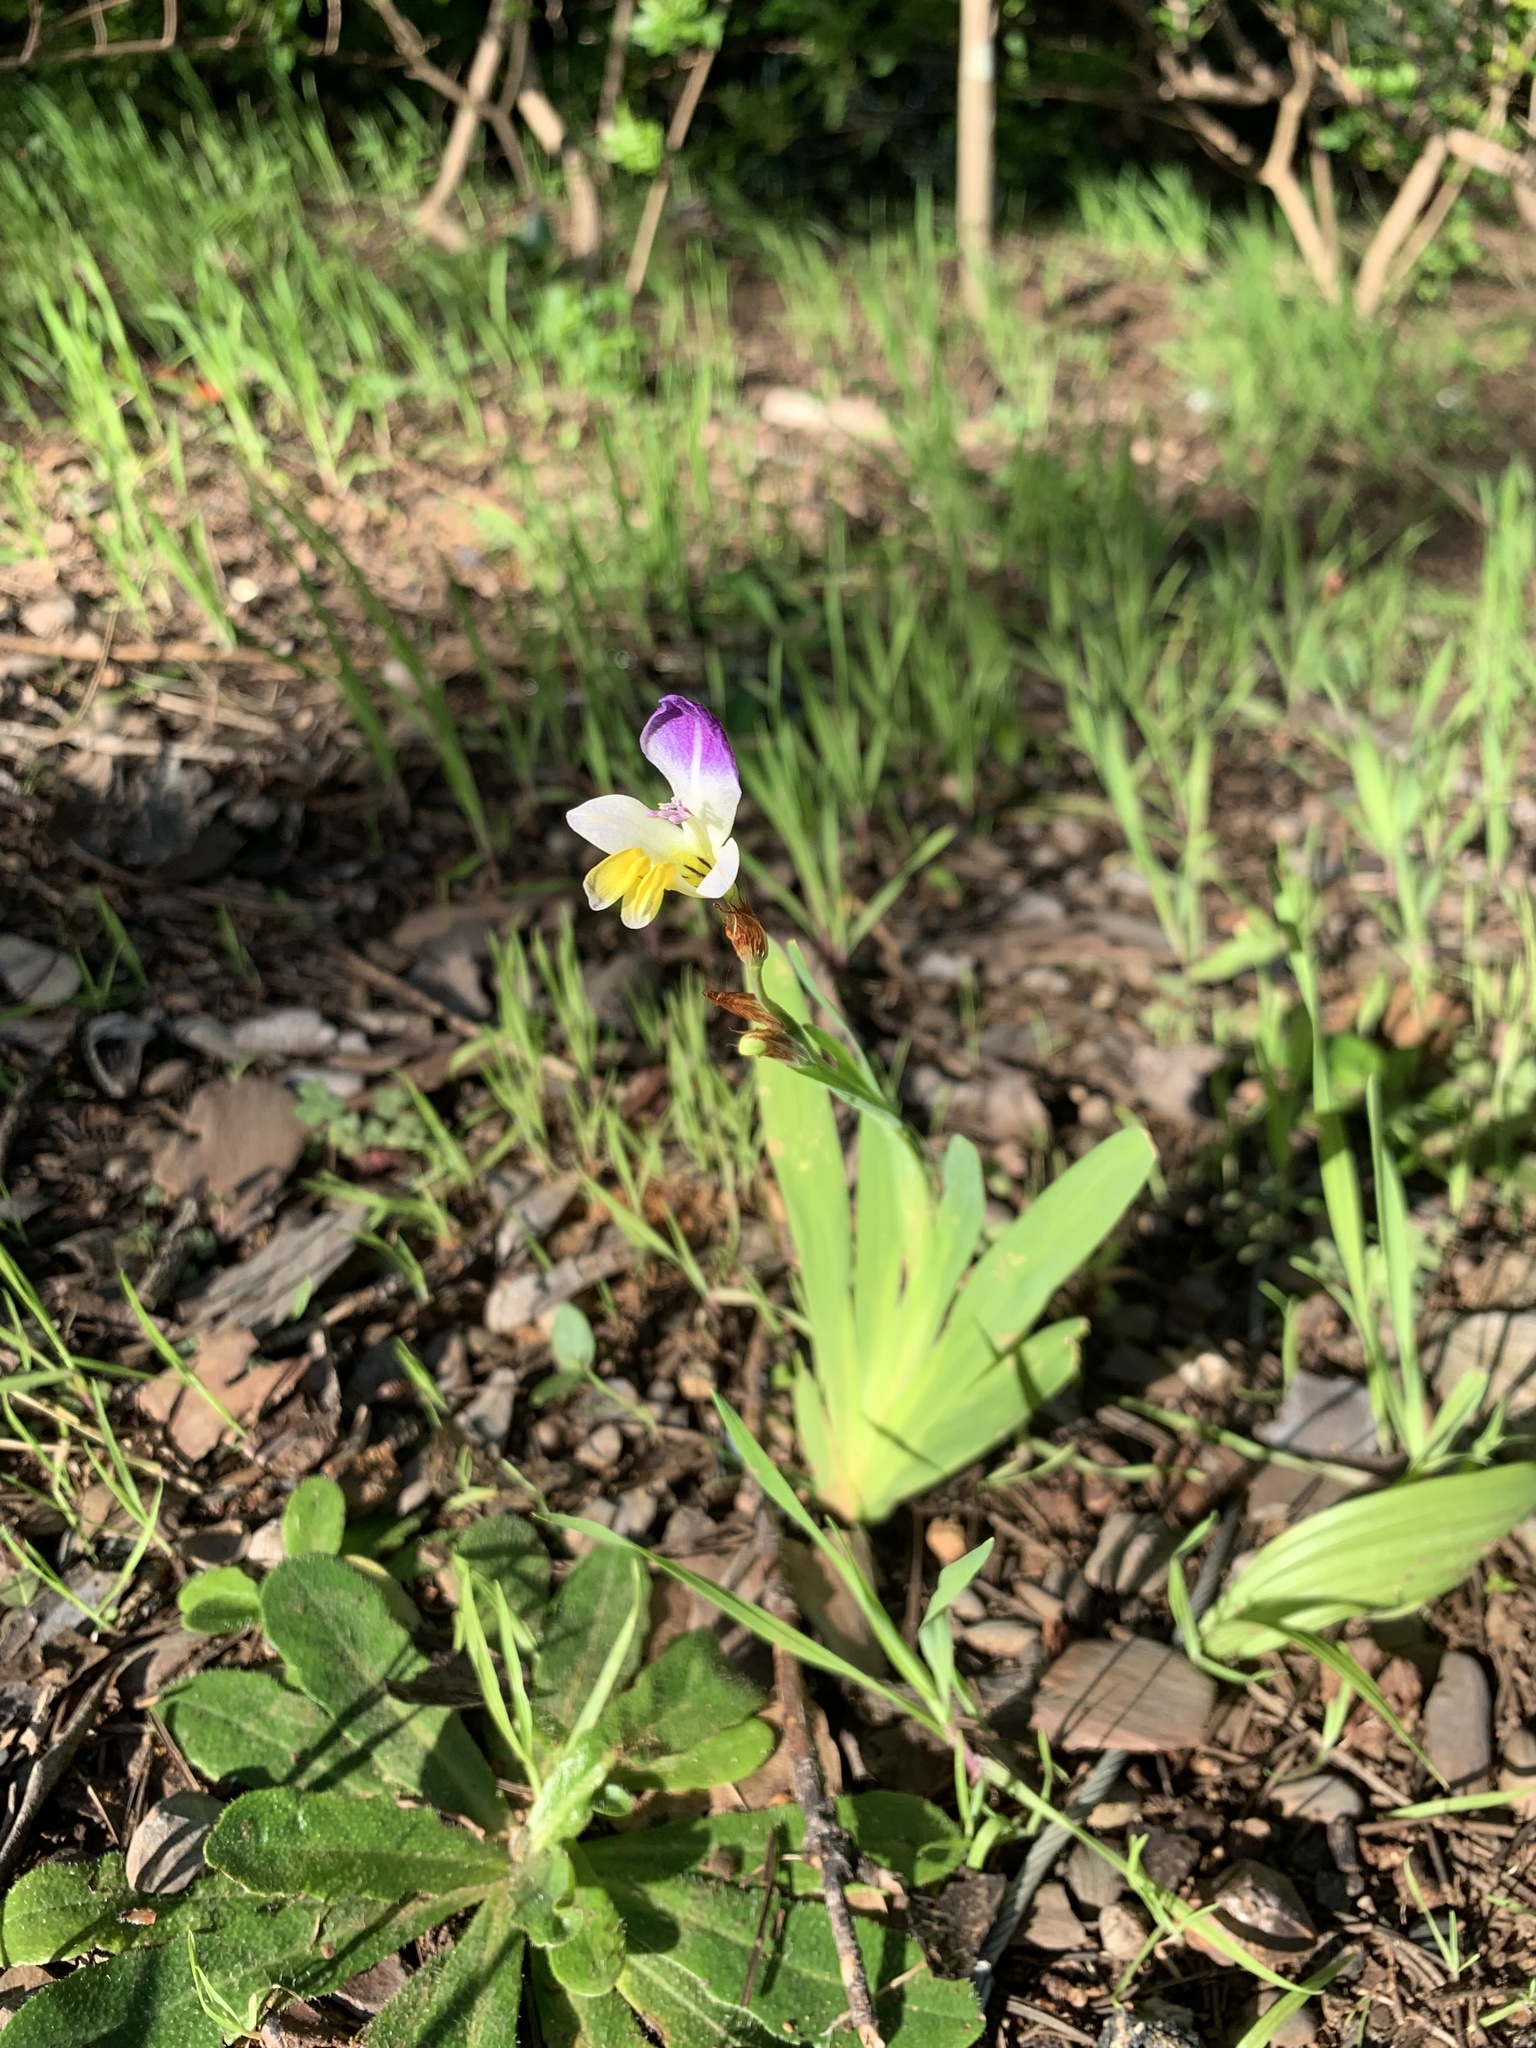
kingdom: Plantae
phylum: Tracheophyta
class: Liliopsida
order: Asparagales
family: Iridaceae
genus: Sparaxis
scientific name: Sparaxis villosa
